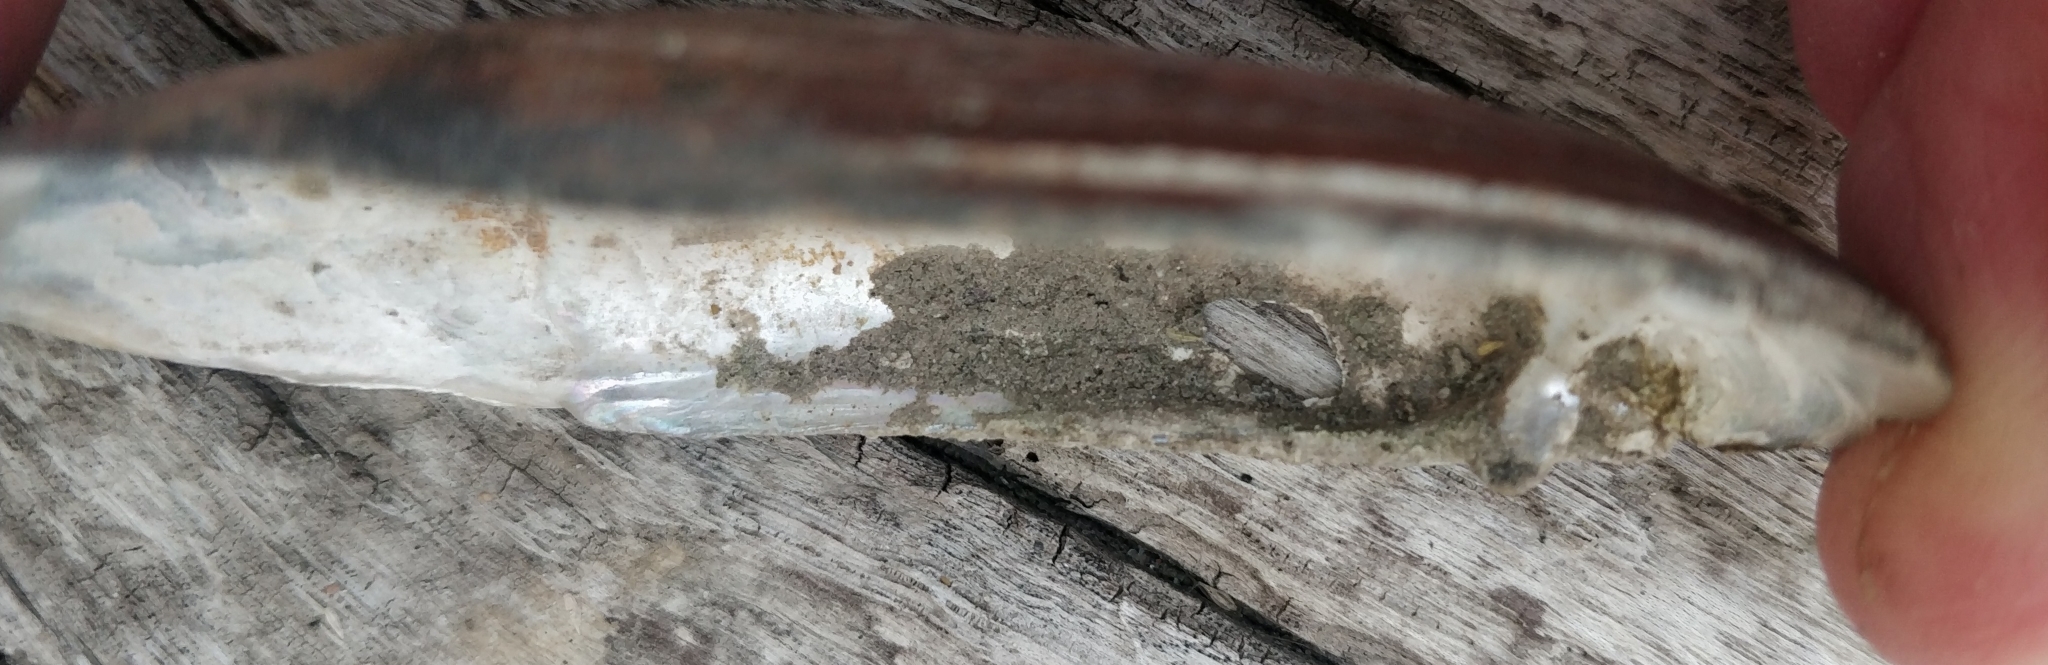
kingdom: Animalia
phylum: Mollusca
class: Bivalvia
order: Unionida
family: Unionidae
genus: Ligumia
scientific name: Ligumia recta
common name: Black sandshell
